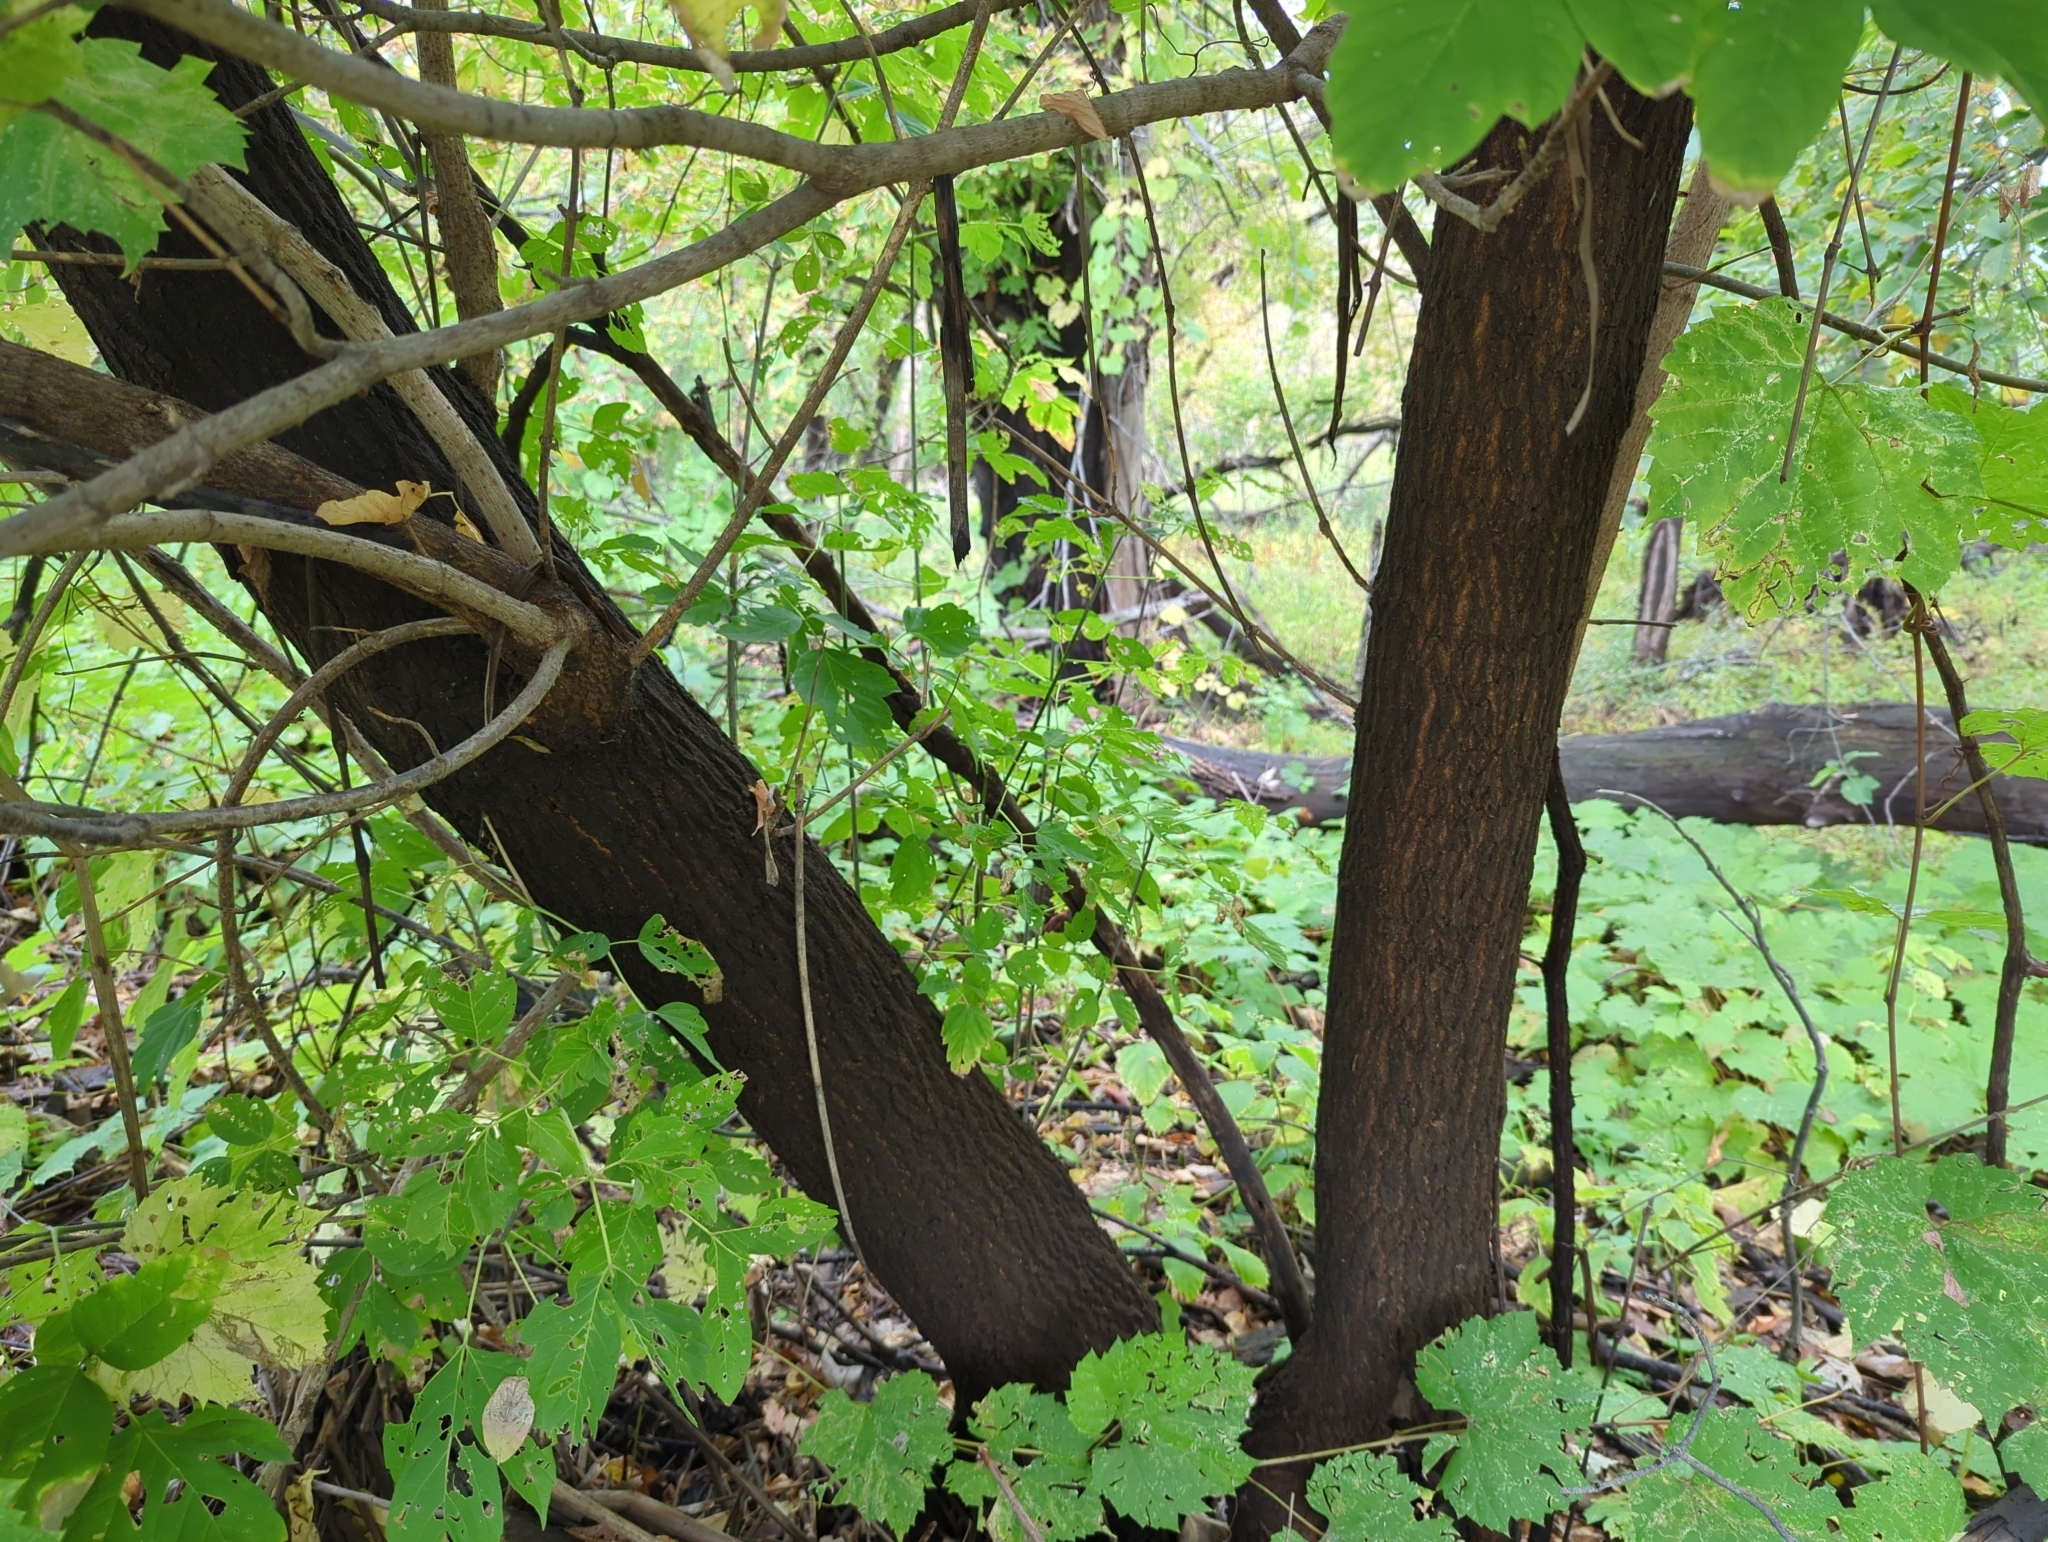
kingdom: Plantae
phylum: Tracheophyta
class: Magnoliopsida
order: Sapindales
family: Sapindaceae
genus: Acer
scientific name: Acer negundo
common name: Ashleaf maple
